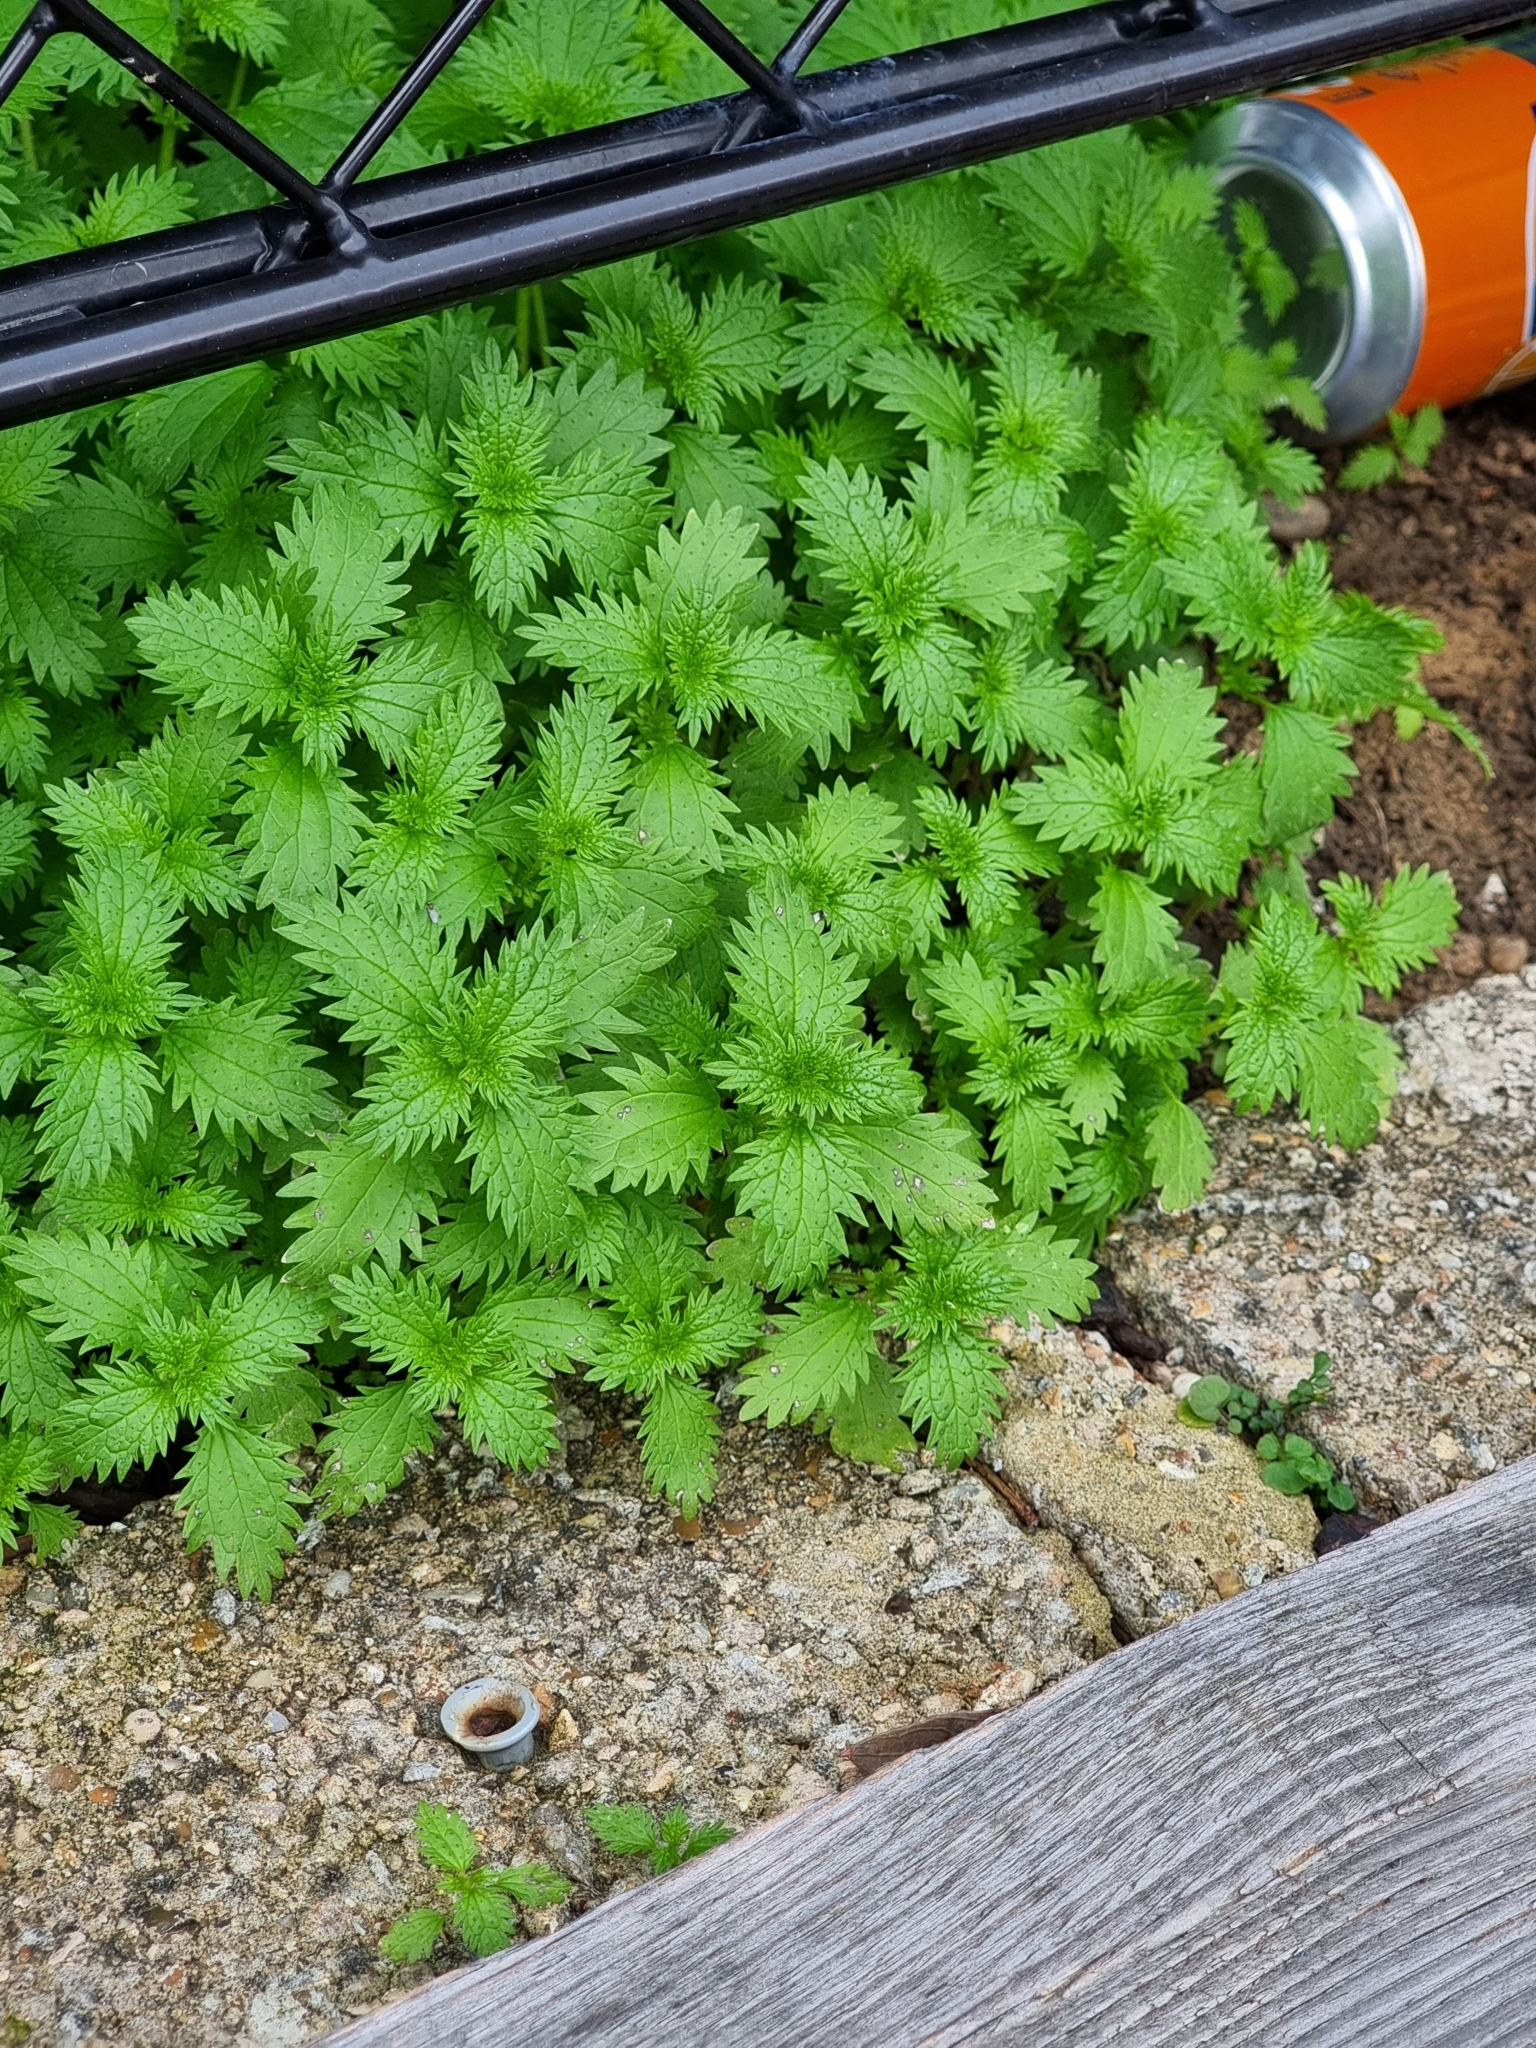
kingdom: Plantae
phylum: Tracheophyta
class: Magnoliopsida
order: Rosales
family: Urticaceae
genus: Urtica
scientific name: Urtica urens
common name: Dwarf nettle
